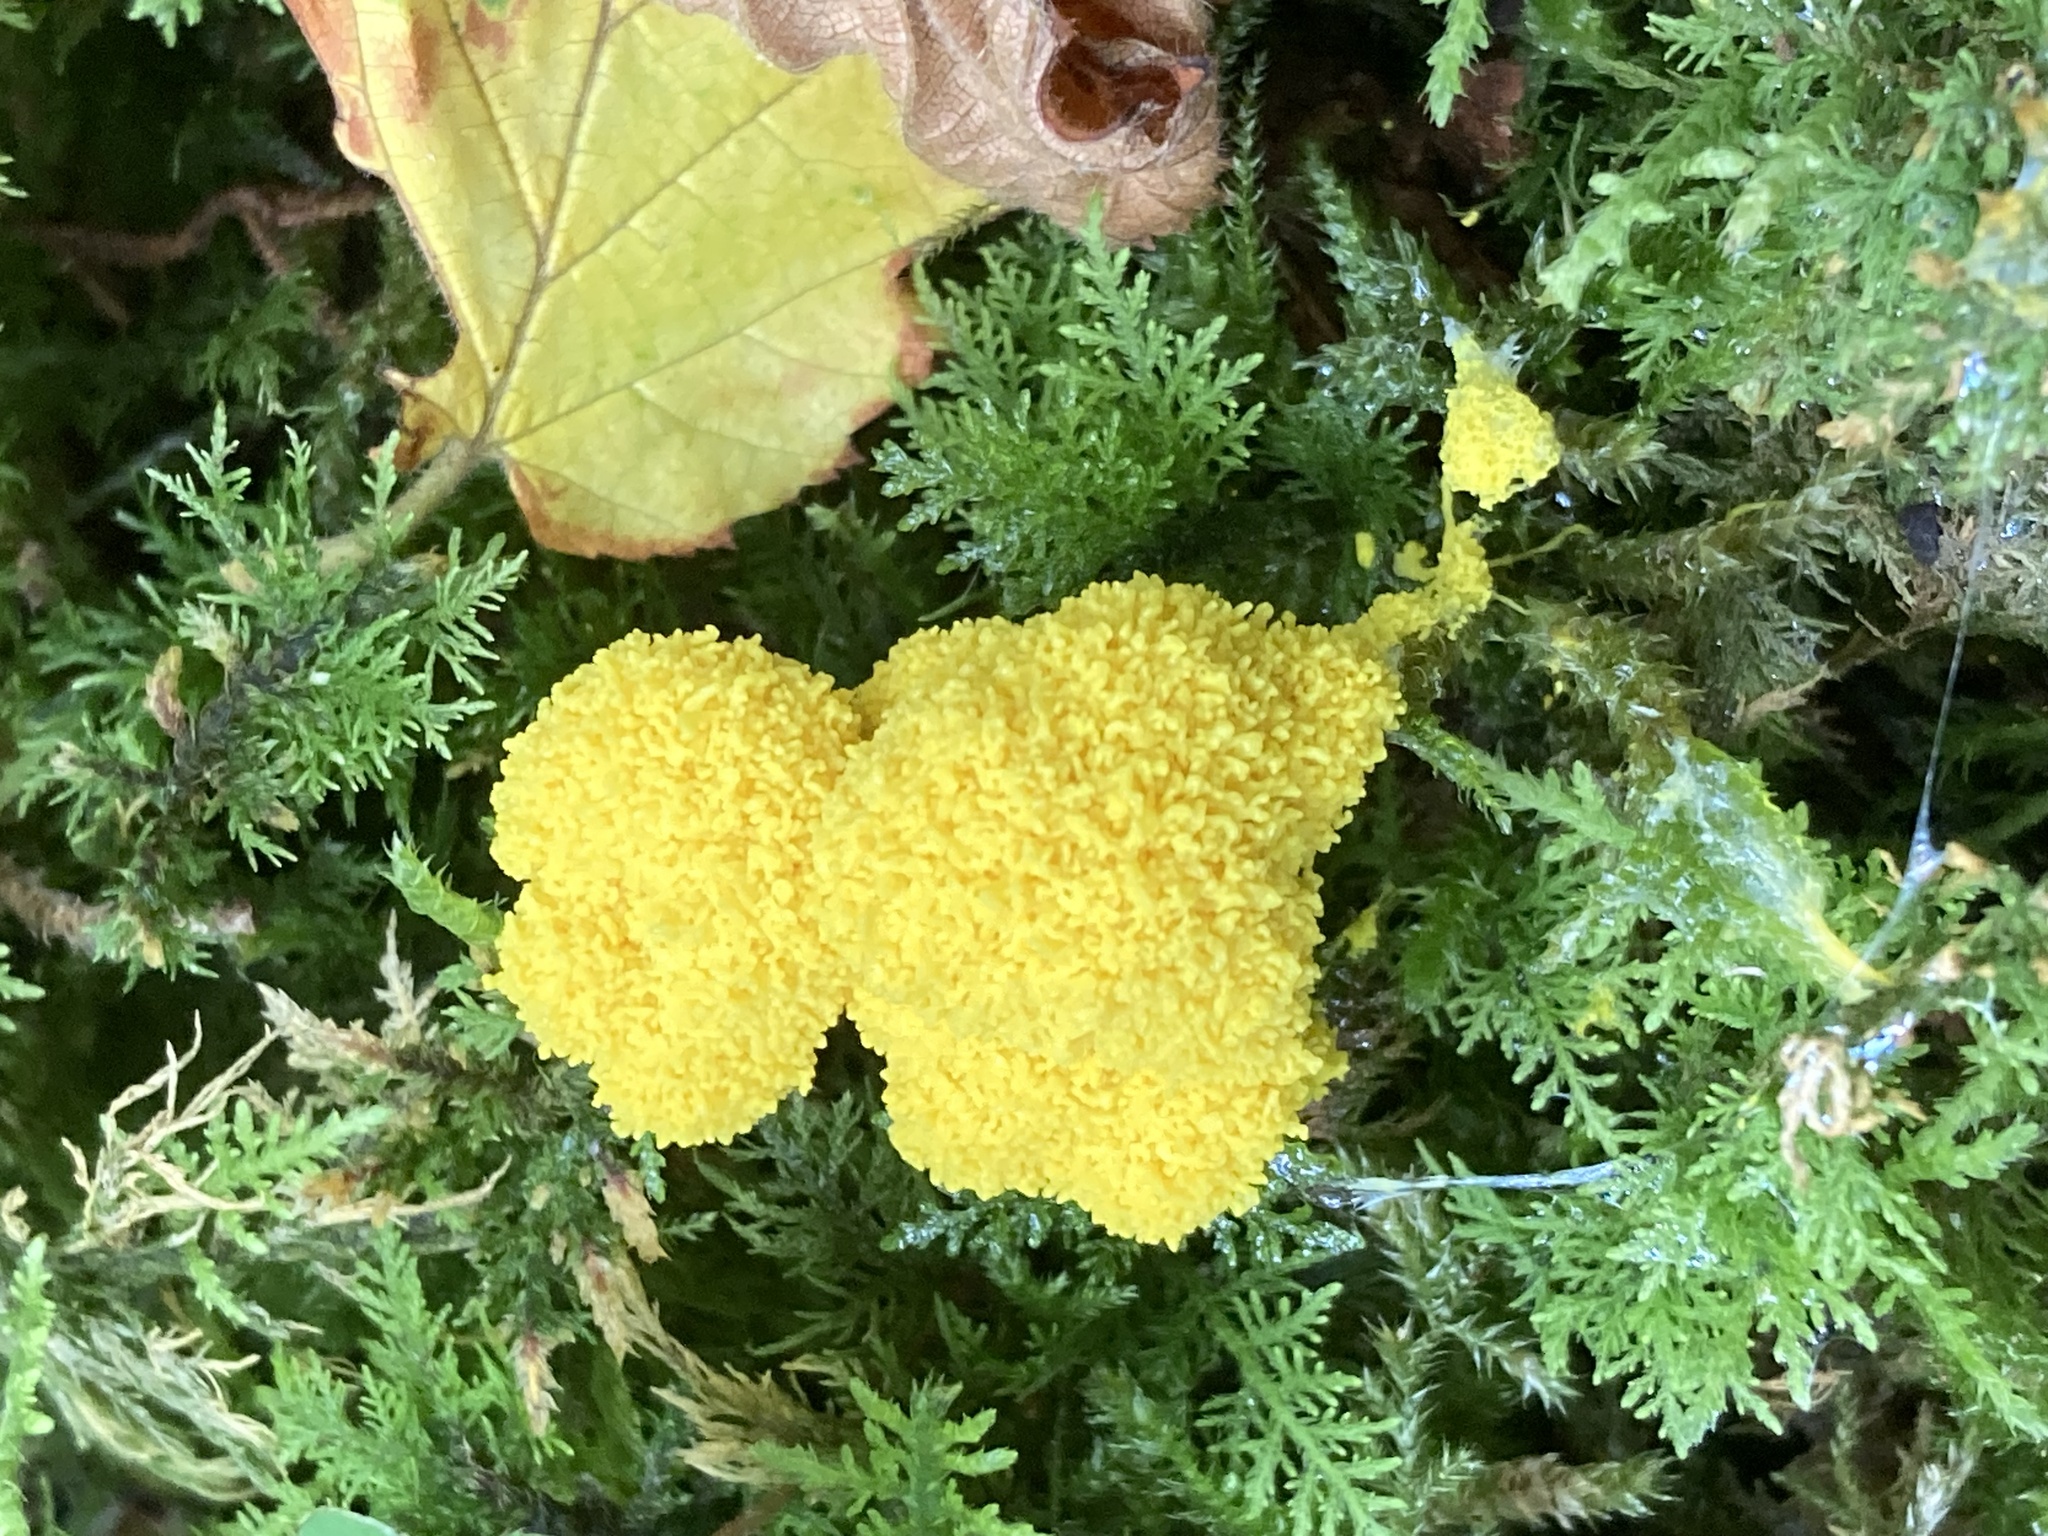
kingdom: Protozoa
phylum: Mycetozoa
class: Myxomycetes
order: Physarales
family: Physaraceae
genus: Fuligo
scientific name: Fuligo septica
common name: Dog vomit slime mold
